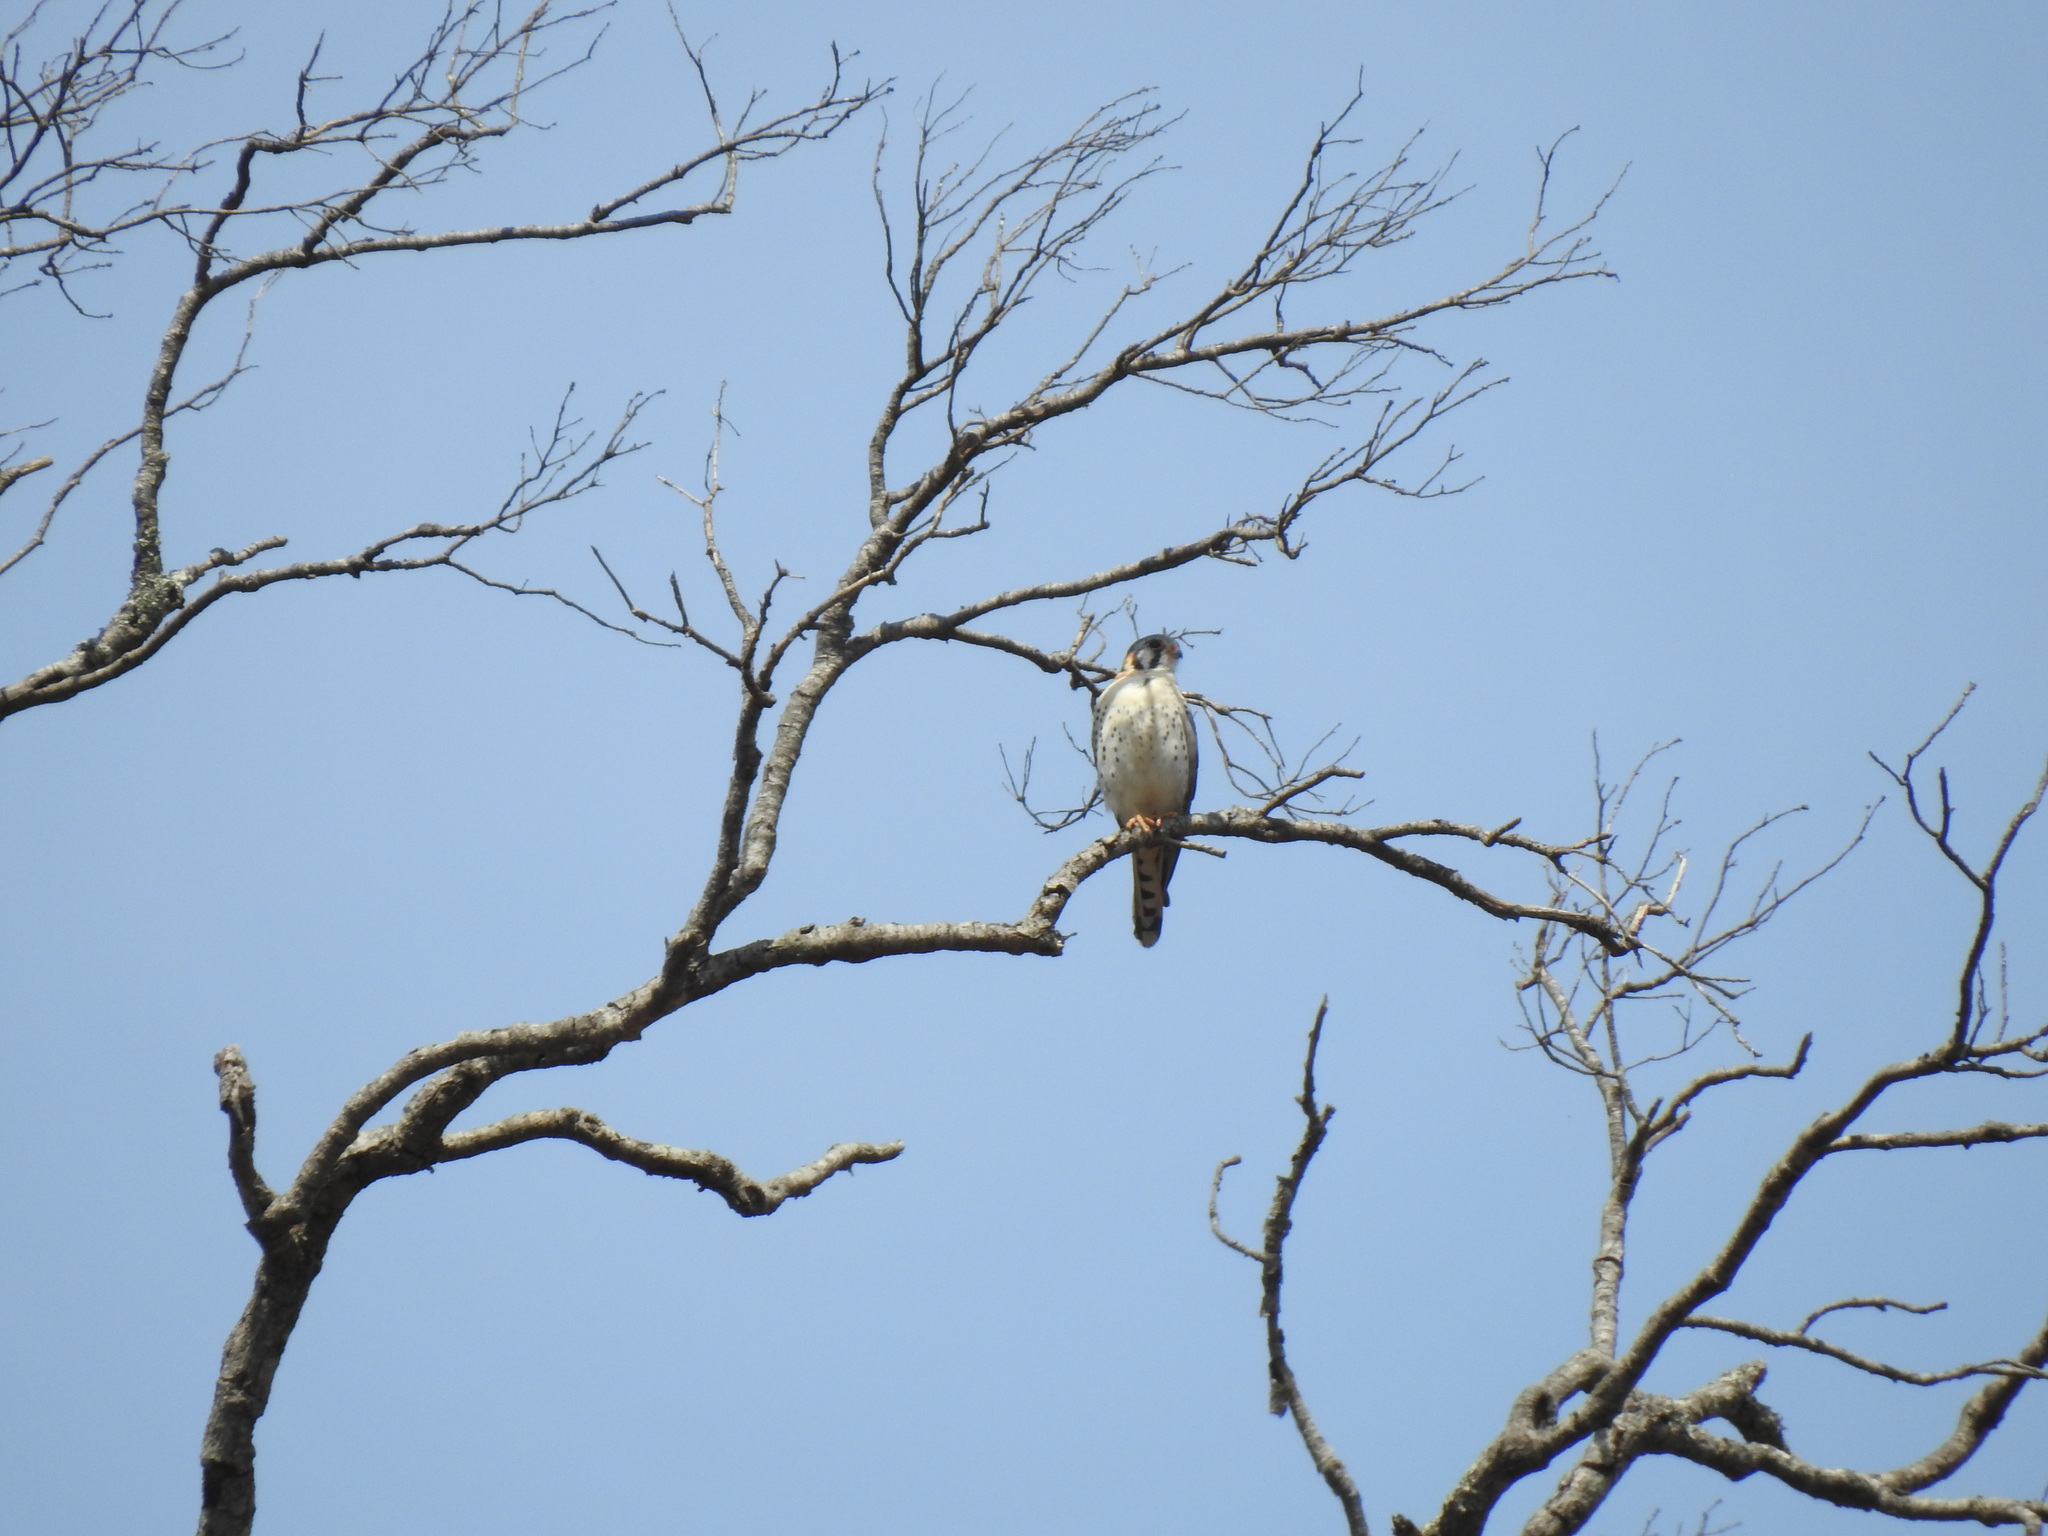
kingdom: Animalia
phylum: Chordata
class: Aves
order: Falconiformes
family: Falconidae
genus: Falco
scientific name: Falco sparverius
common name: American kestrel
